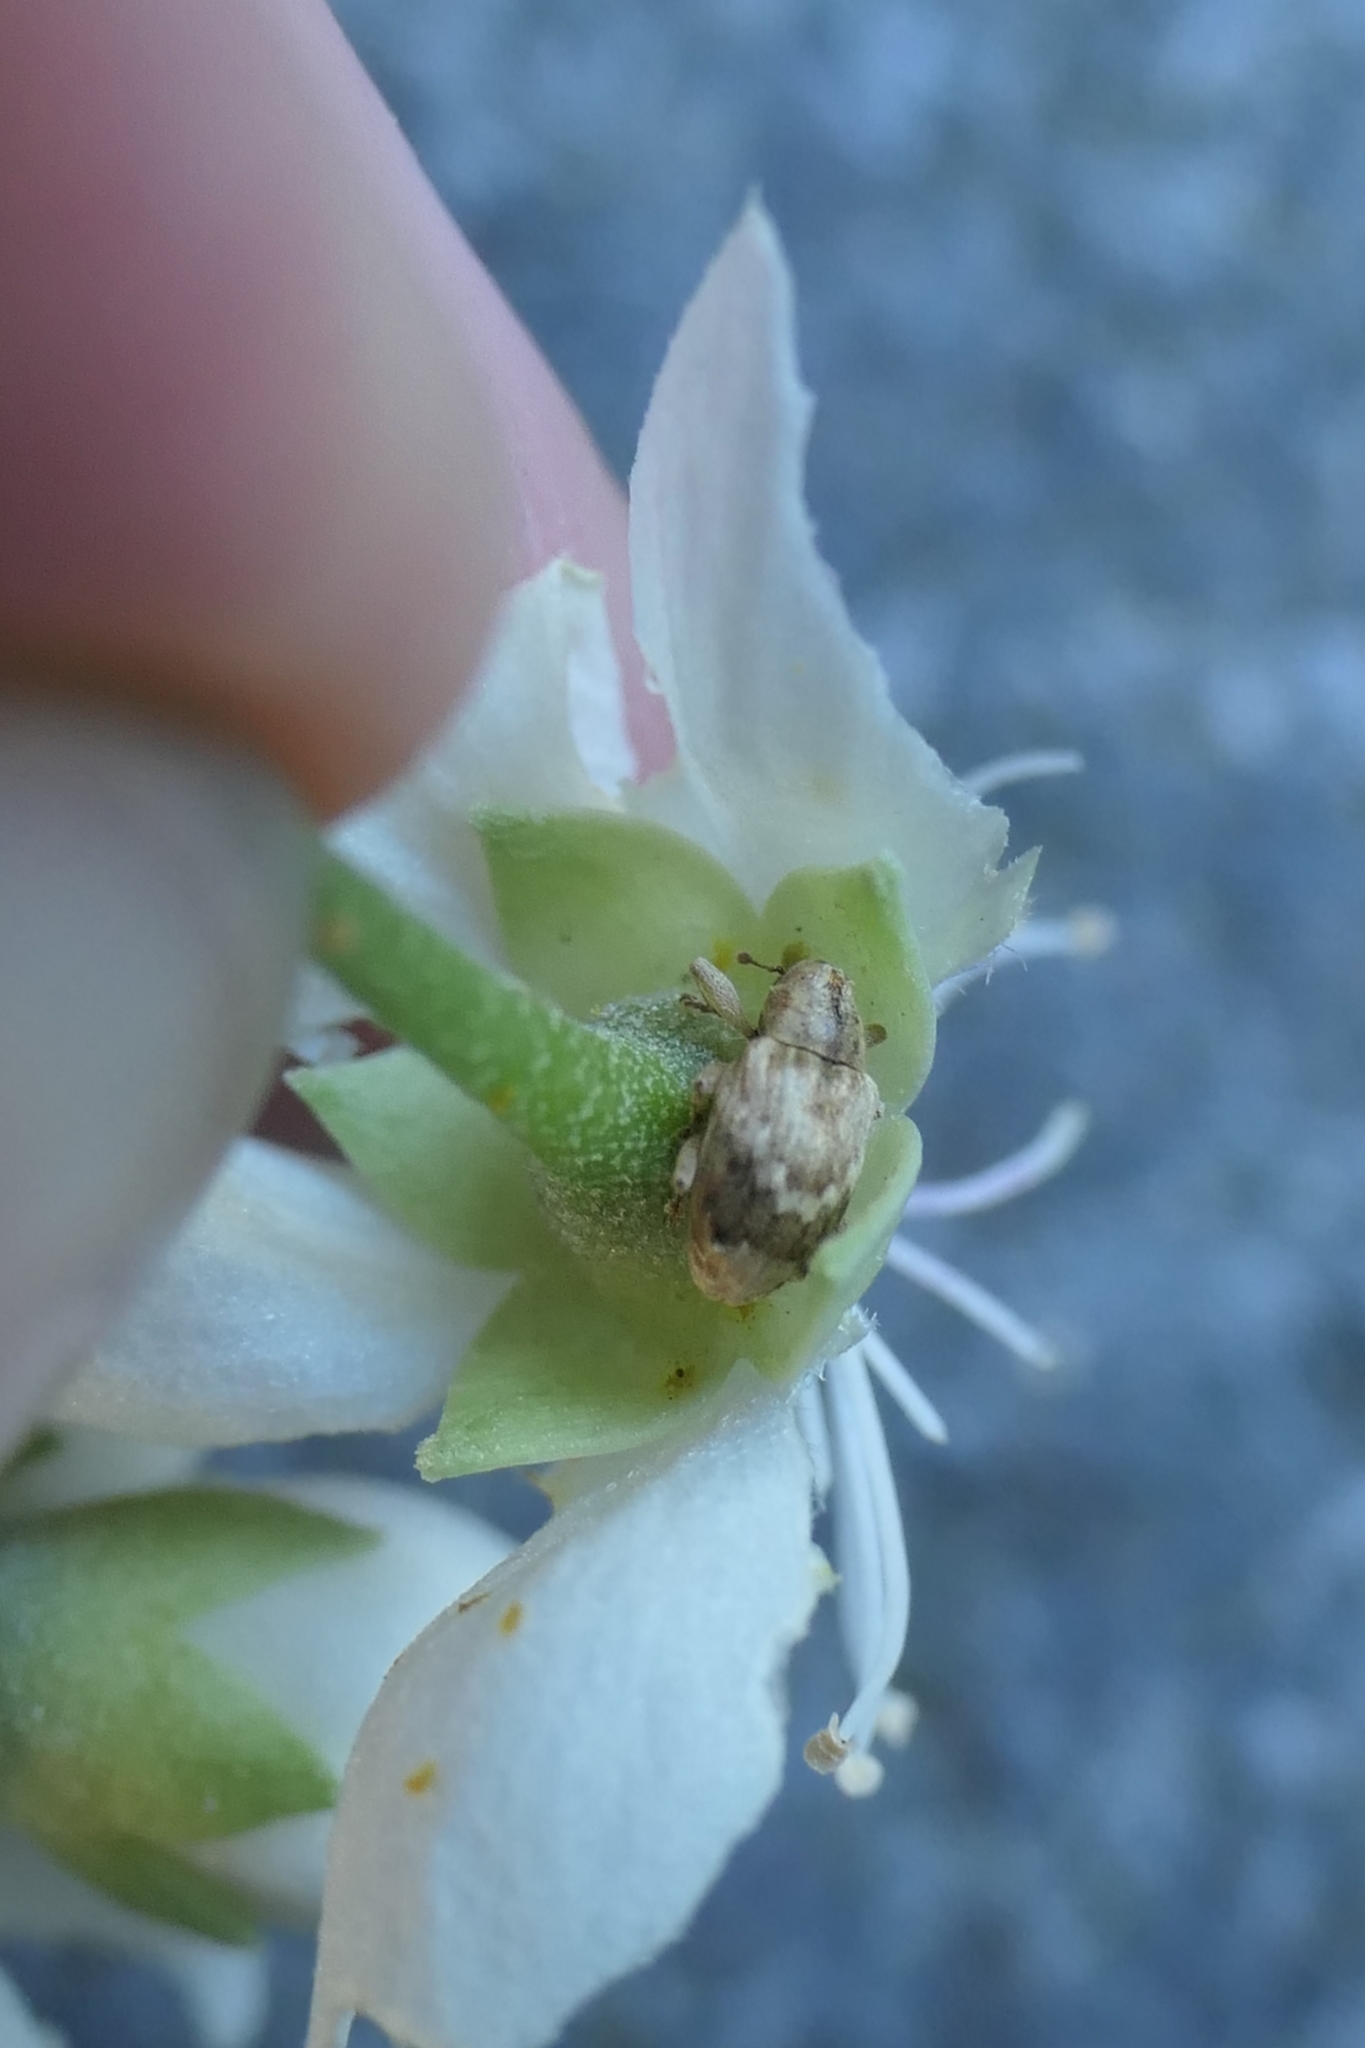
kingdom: Animalia
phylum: Arthropoda
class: Insecta
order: Coleoptera
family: Curculionidae
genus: Aneuma
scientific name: Aneuma compta
